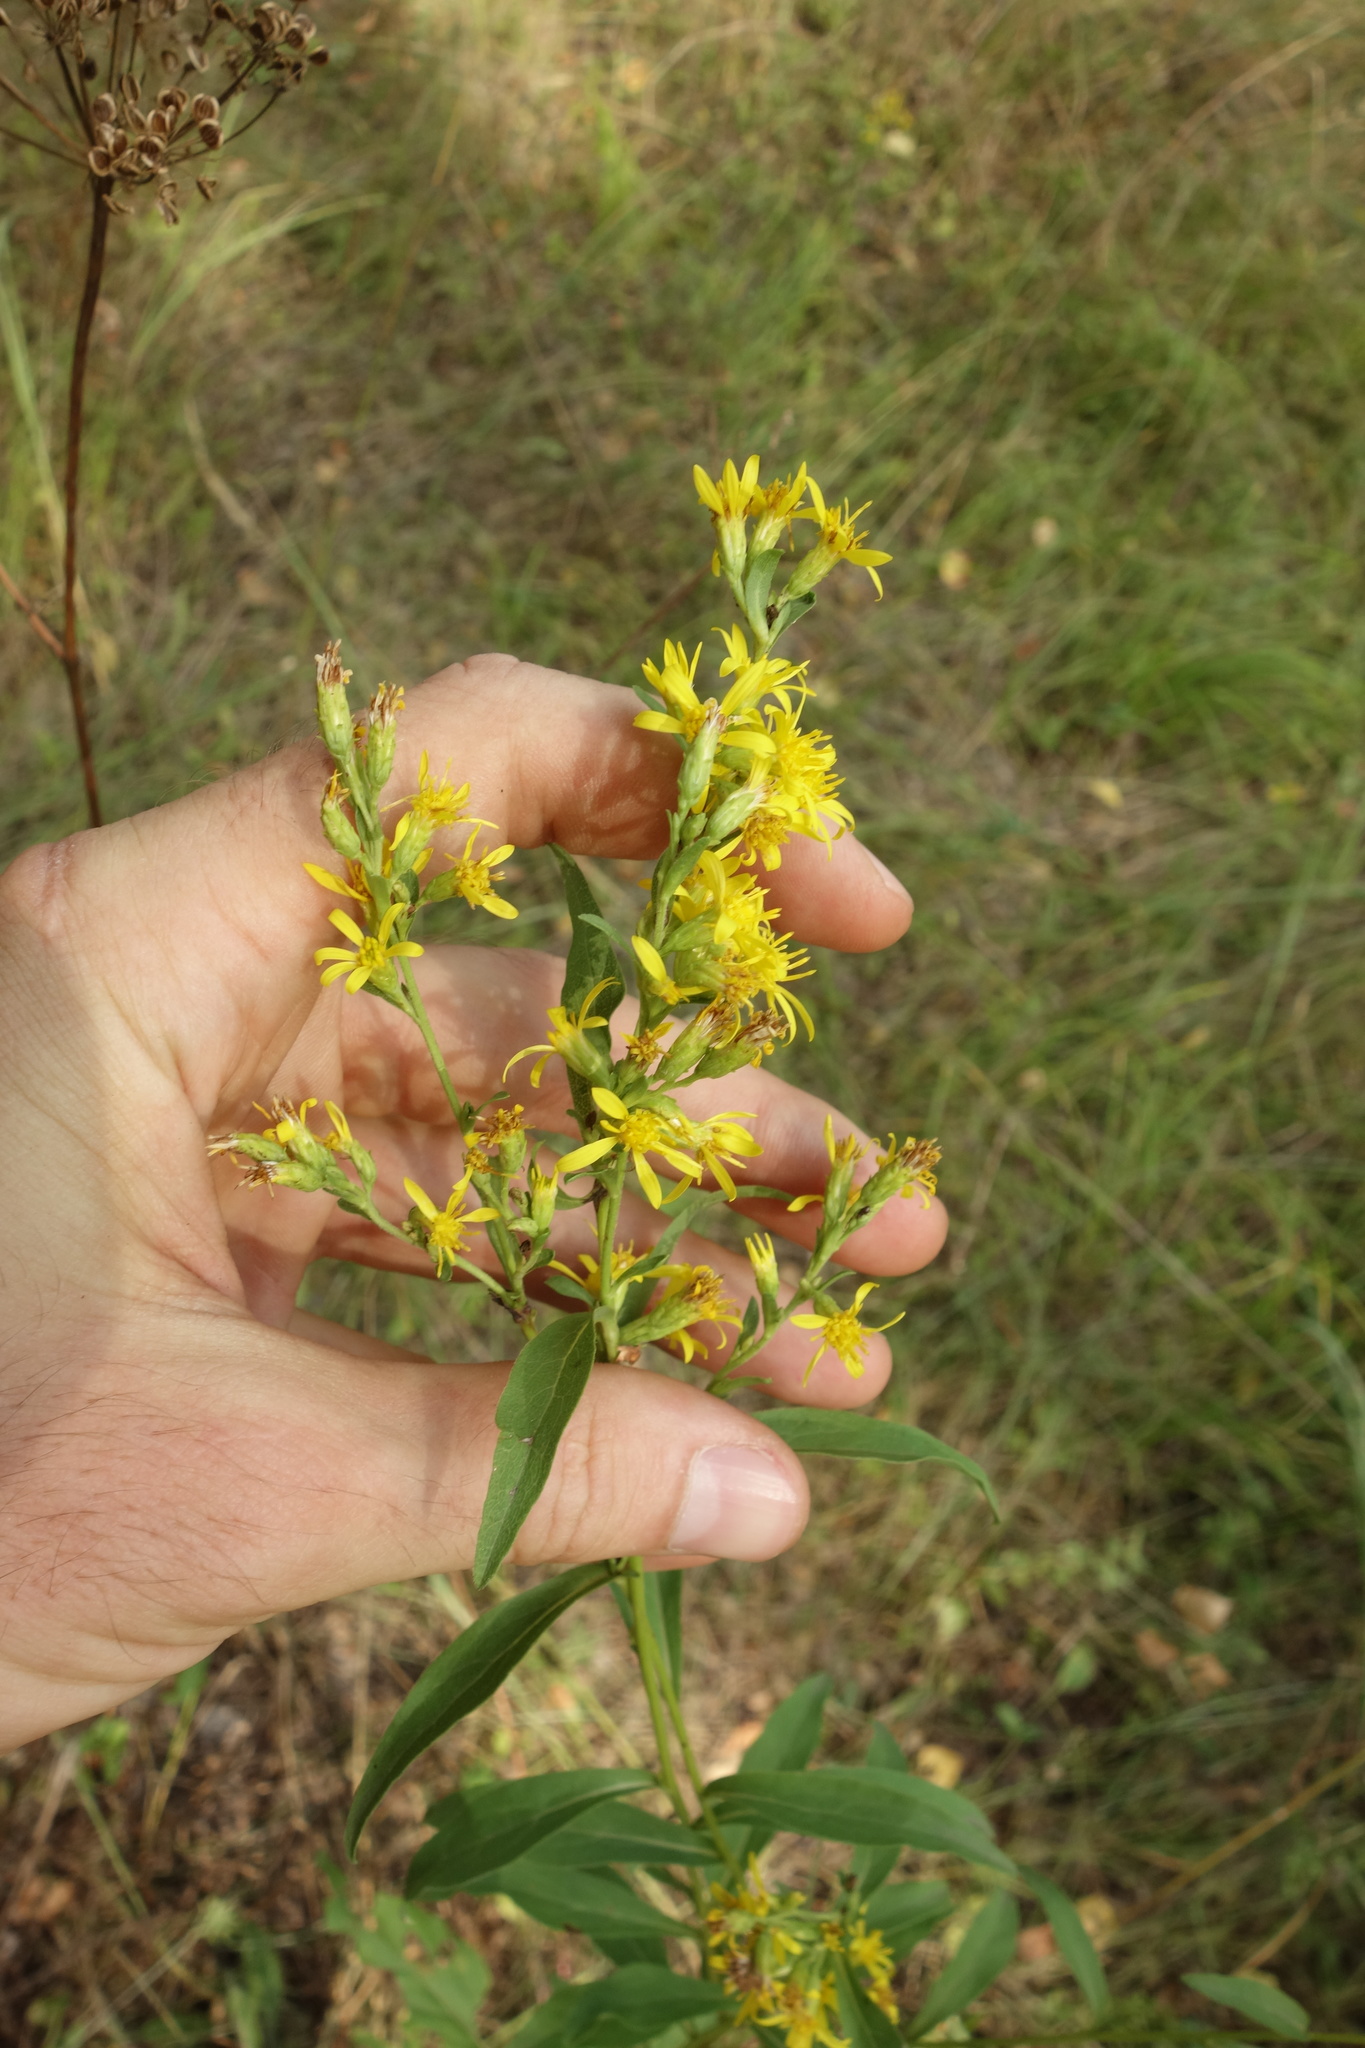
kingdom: Plantae
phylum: Tracheophyta
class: Magnoliopsida
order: Asterales
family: Asteraceae
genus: Solidago
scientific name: Solidago virgaurea
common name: Goldenrod
